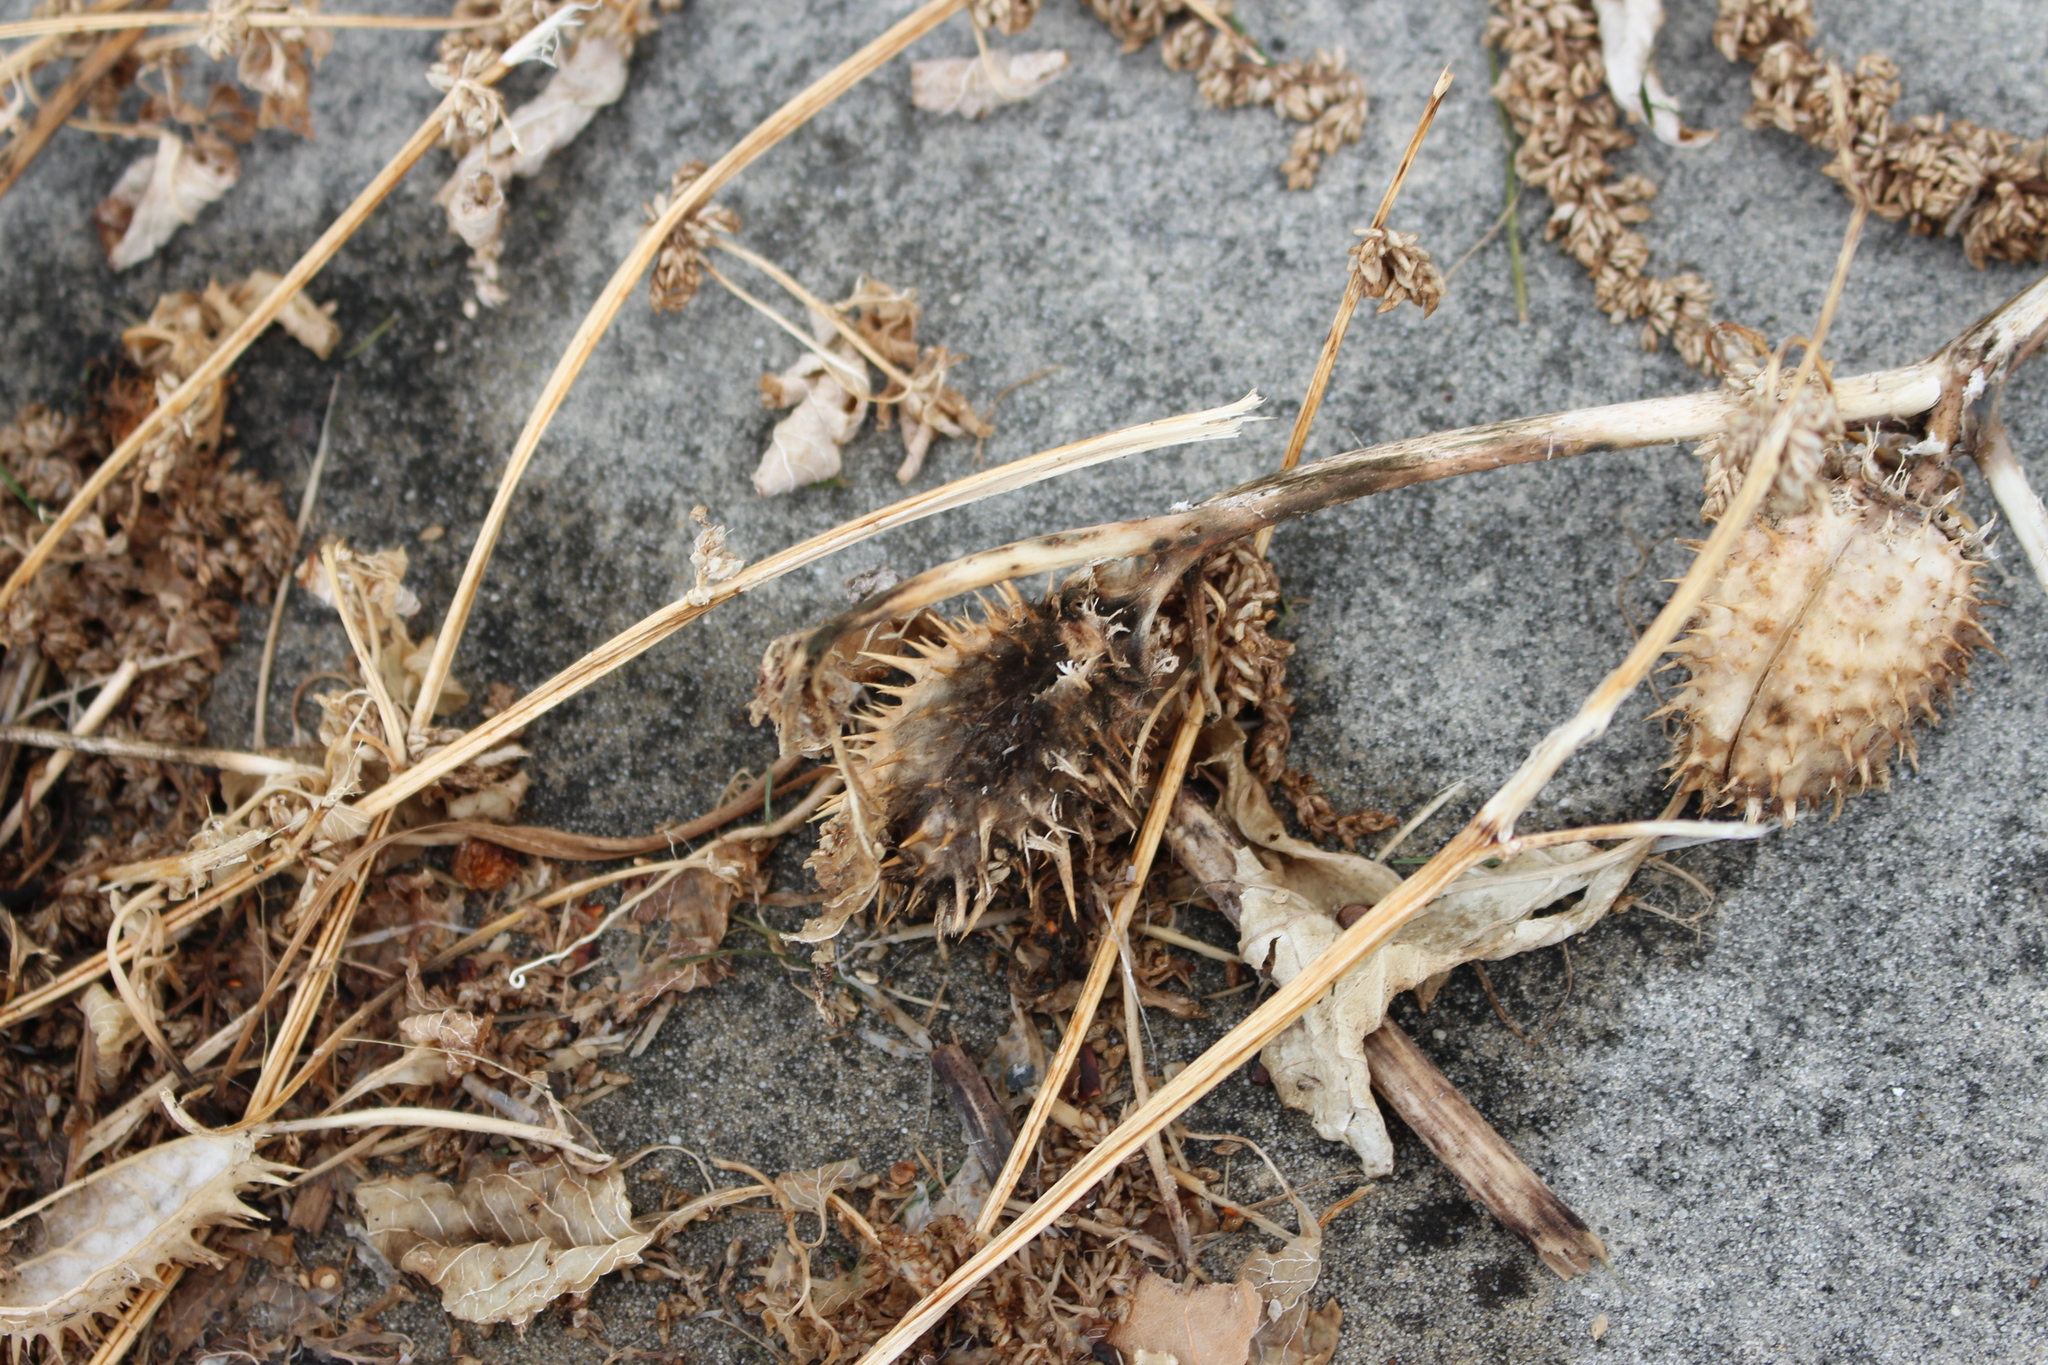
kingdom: Plantae
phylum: Tracheophyta
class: Magnoliopsida
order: Solanales
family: Solanaceae
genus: Datura
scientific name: Datura stramonium
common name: Thorn-apple
